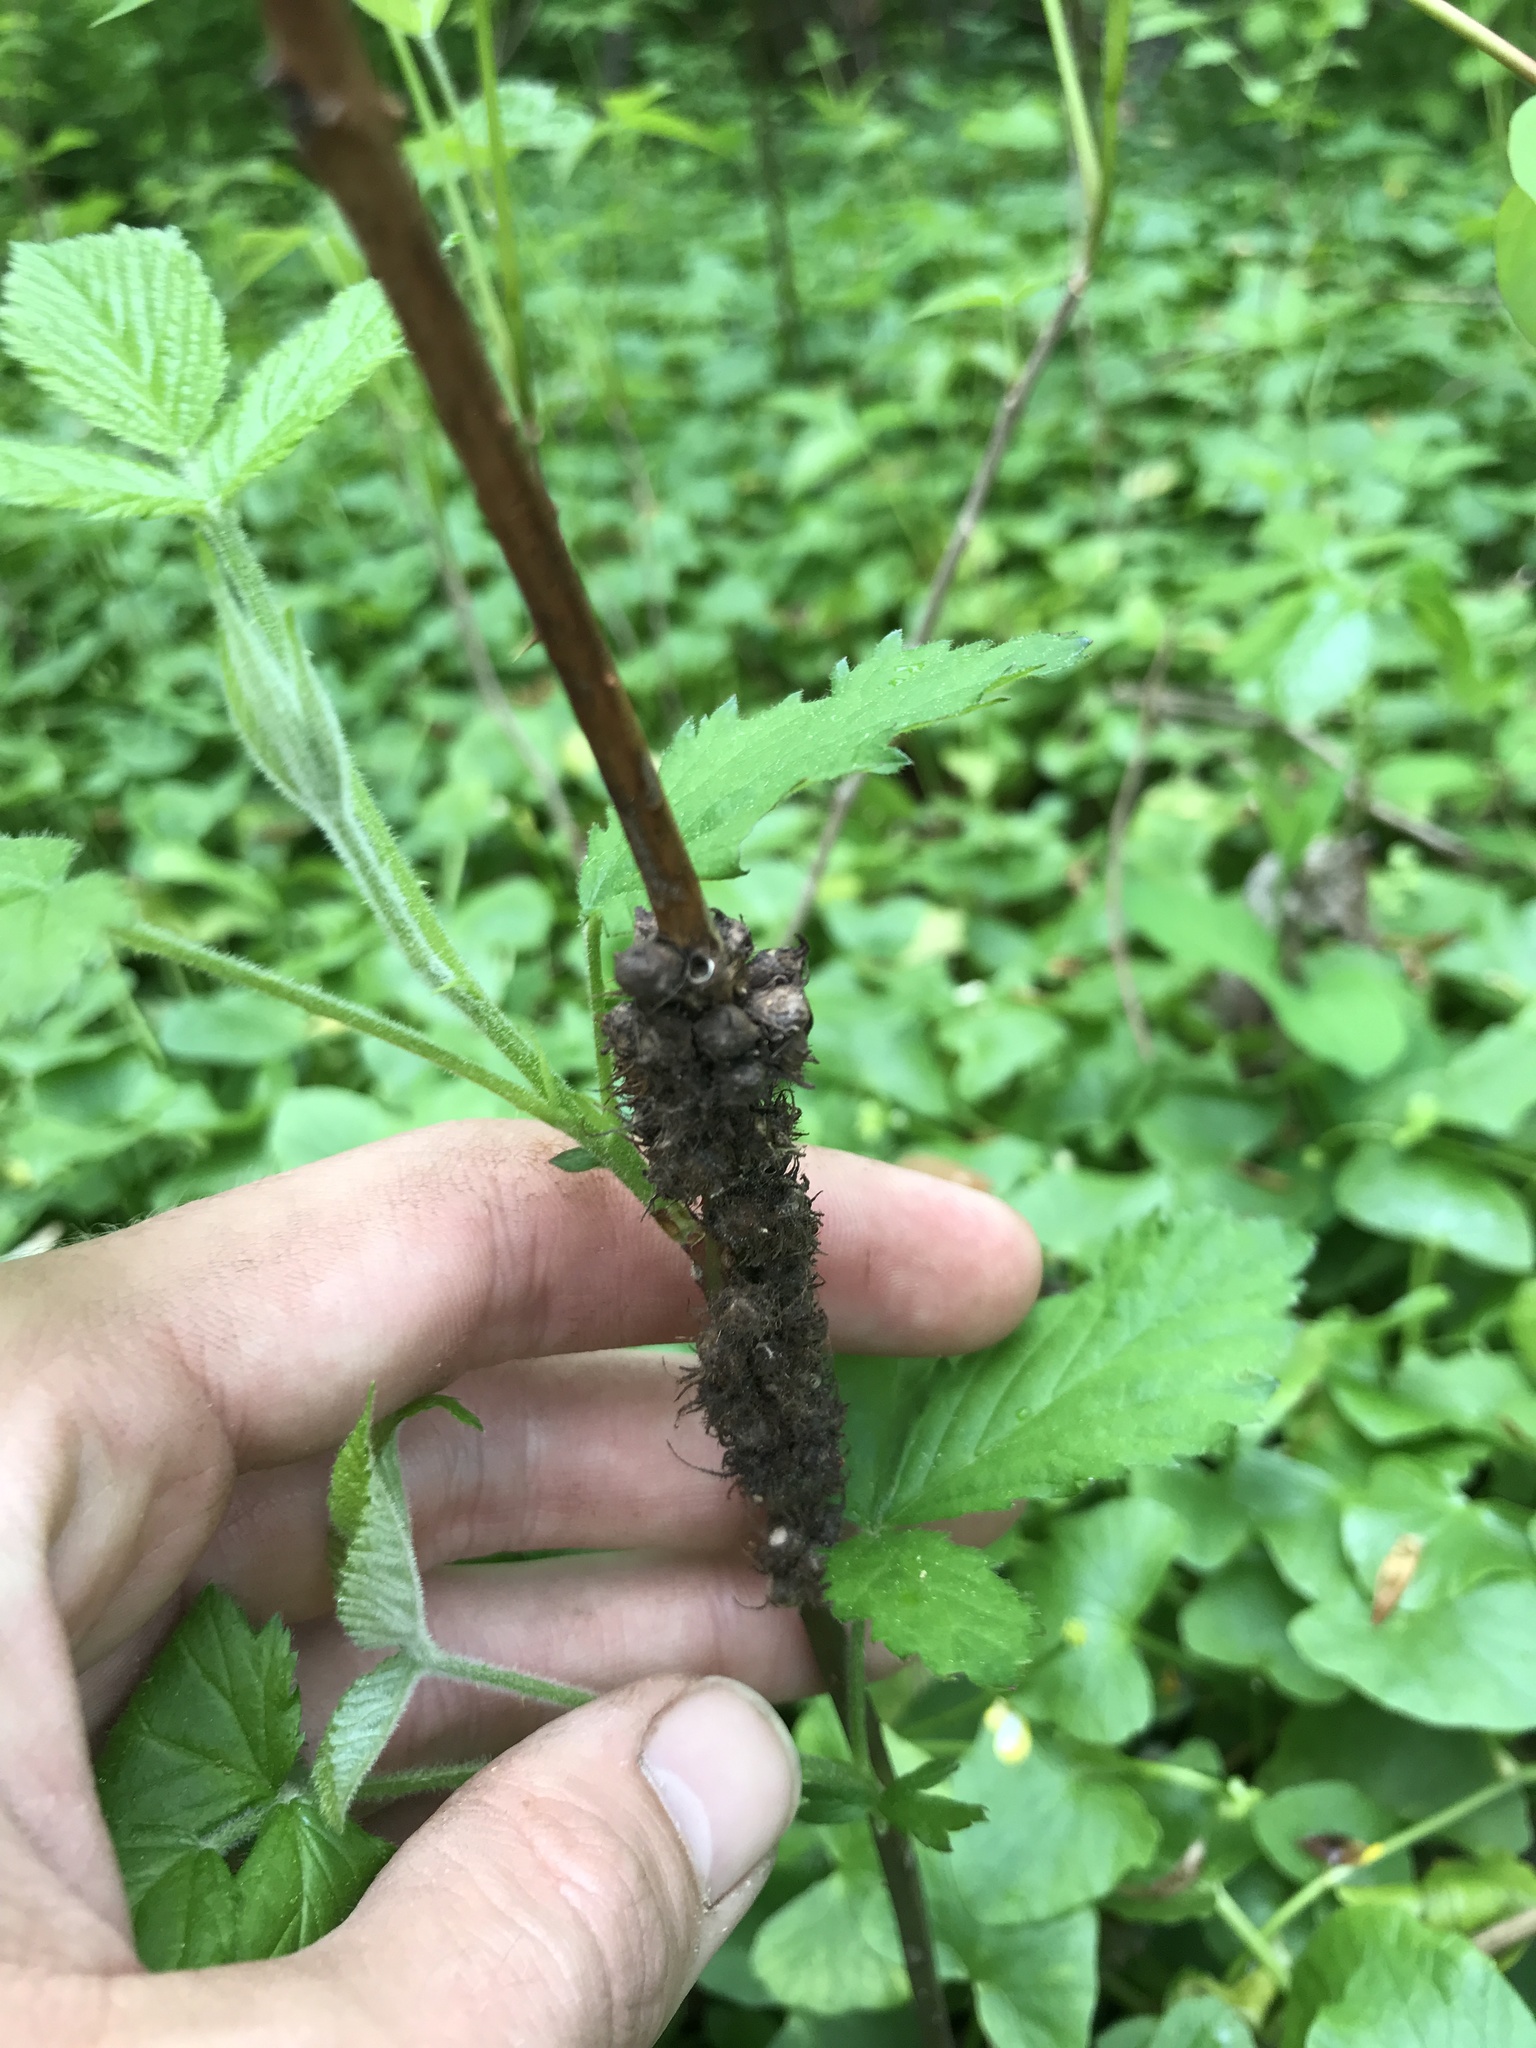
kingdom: Animalia
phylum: Arthropoda
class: Insecta
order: Hymenoptera
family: Cynipidae
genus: Diastrophus
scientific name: Diastrophus
